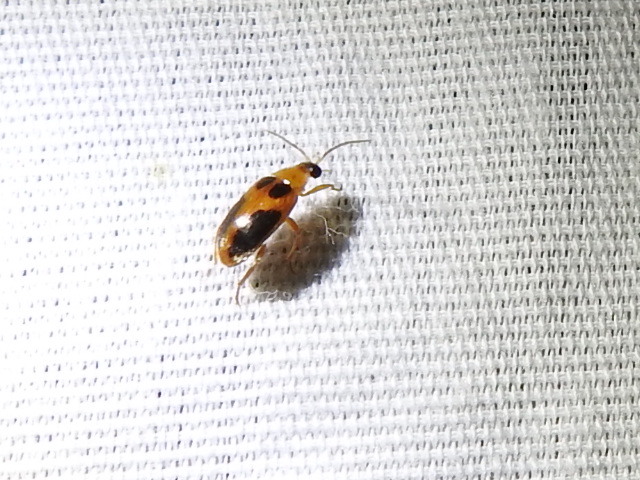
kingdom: Animalia
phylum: Arthropoda
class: Insecta
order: Coleoptera
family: Scirtidae
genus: Sacodes
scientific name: Sacodes pulchella
